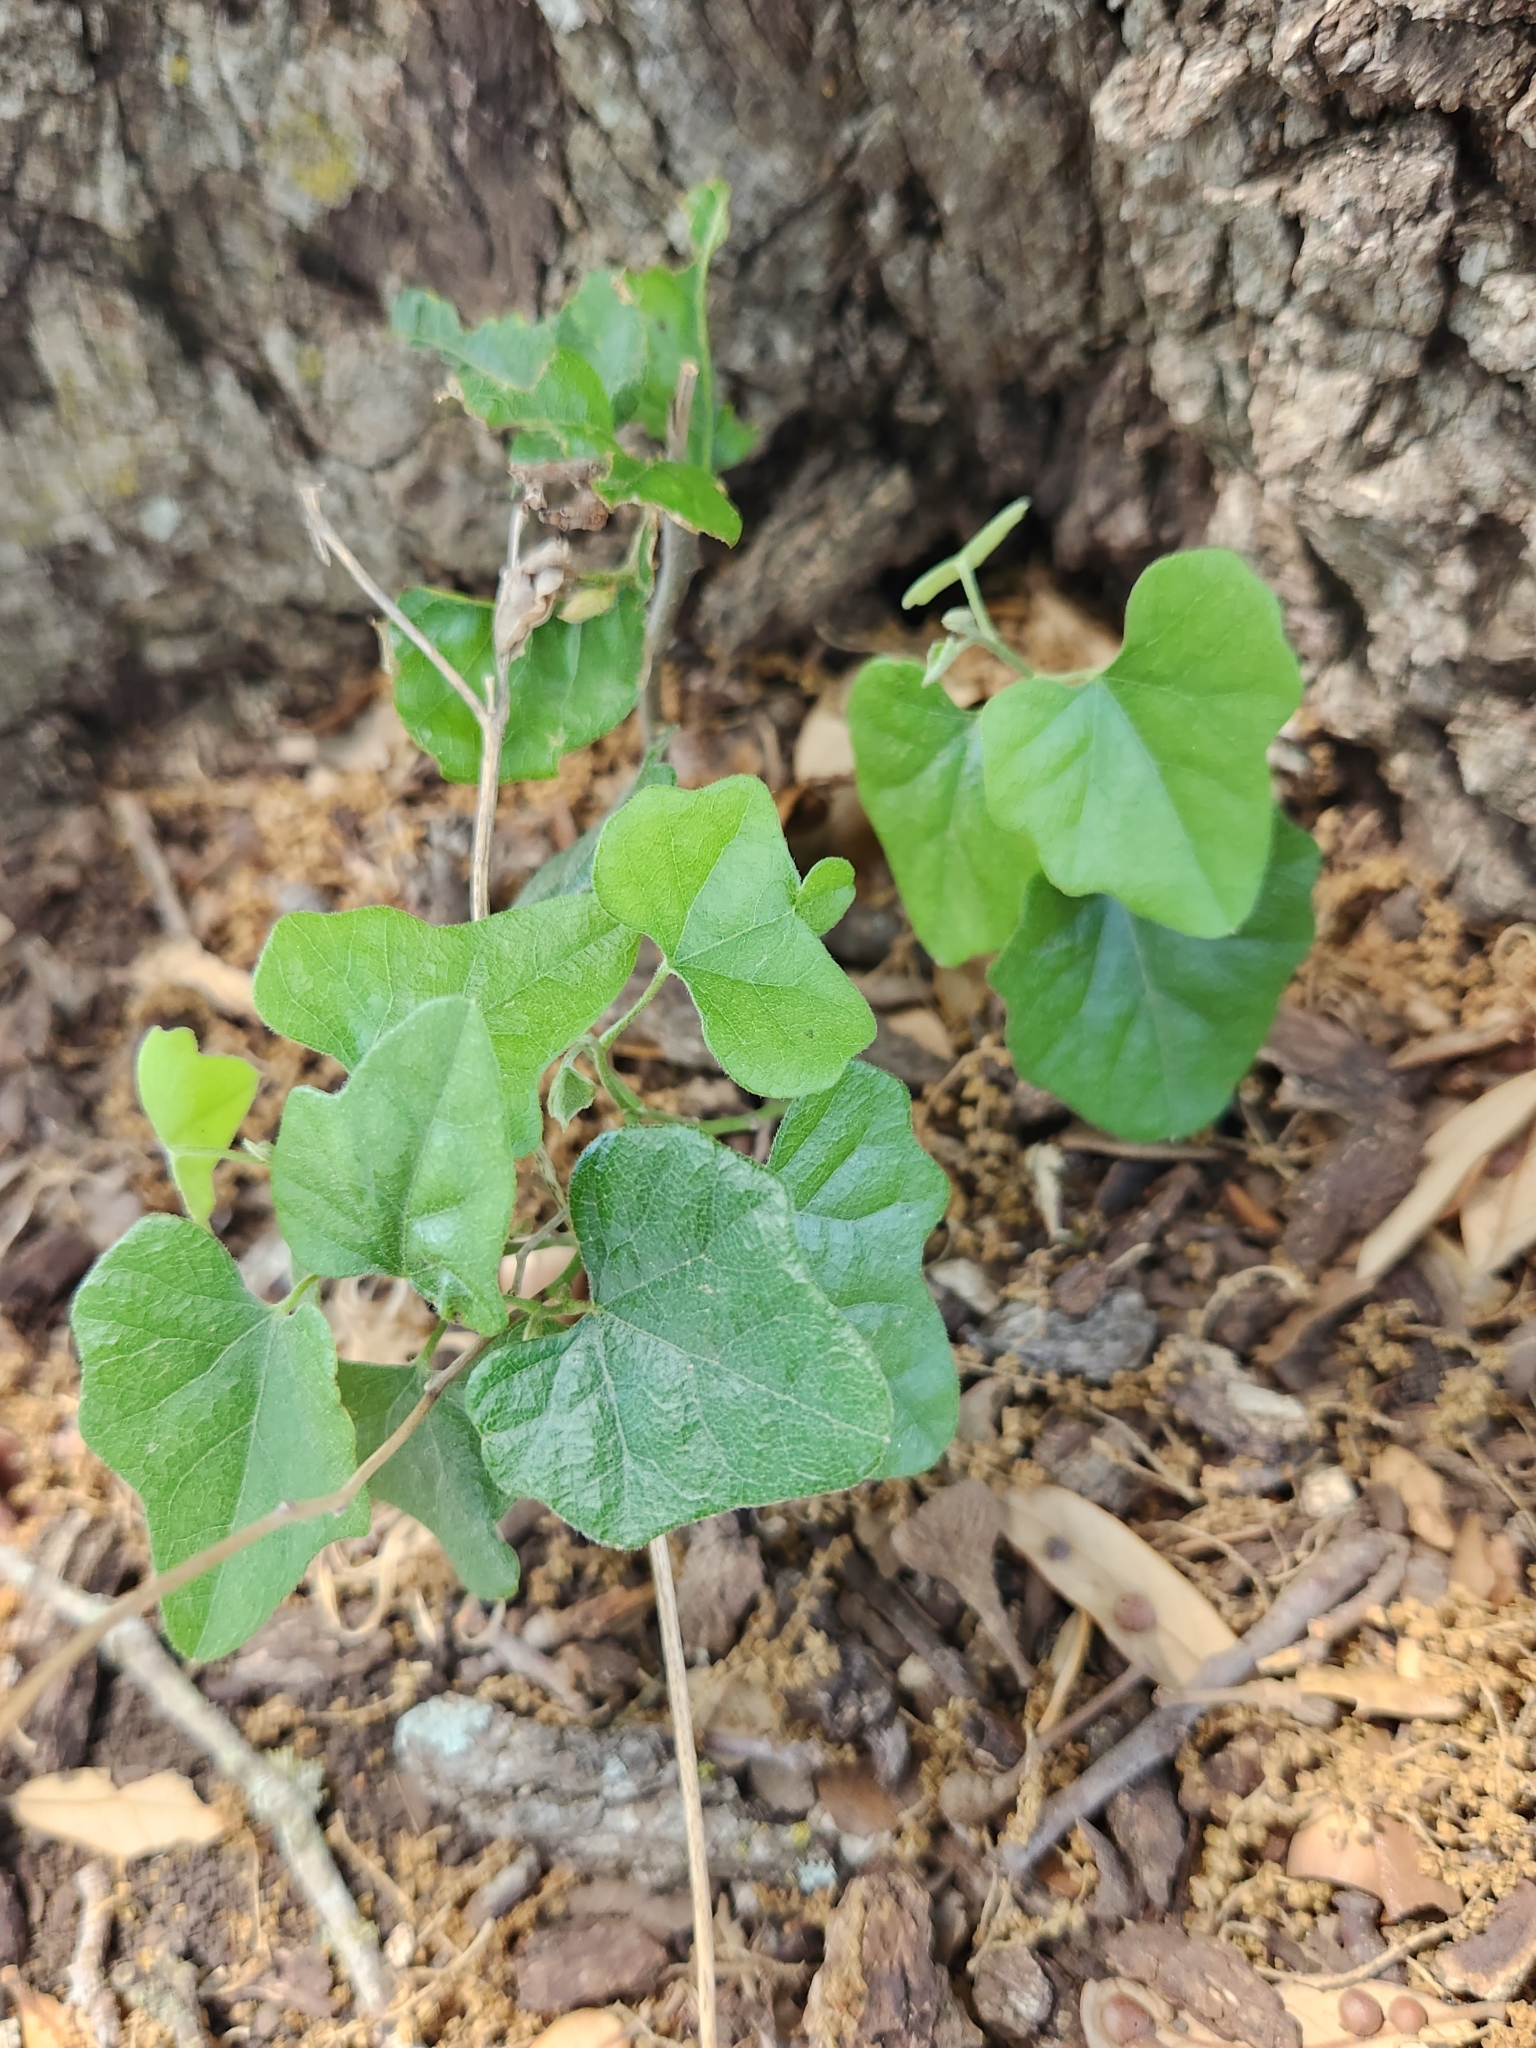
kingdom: Plantae
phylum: Tracheophyta
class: Magnoliopsida
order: Ranunculales
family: Menispermaceae
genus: Cocculus
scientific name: Cocculus carolinus
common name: Carolina moonseed
